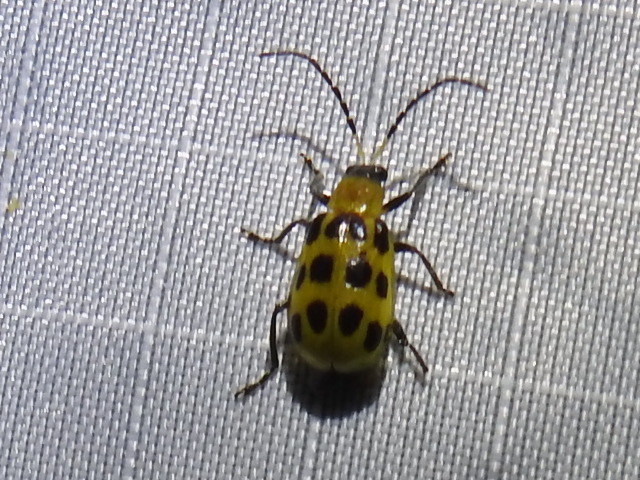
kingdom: Animalia
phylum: Arthropoda
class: Insecta
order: Coleoptera
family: Chrysomelidae
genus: Diabrotica
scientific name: Diabrotica undecimpunctata
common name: Spotted cucumber beetle
